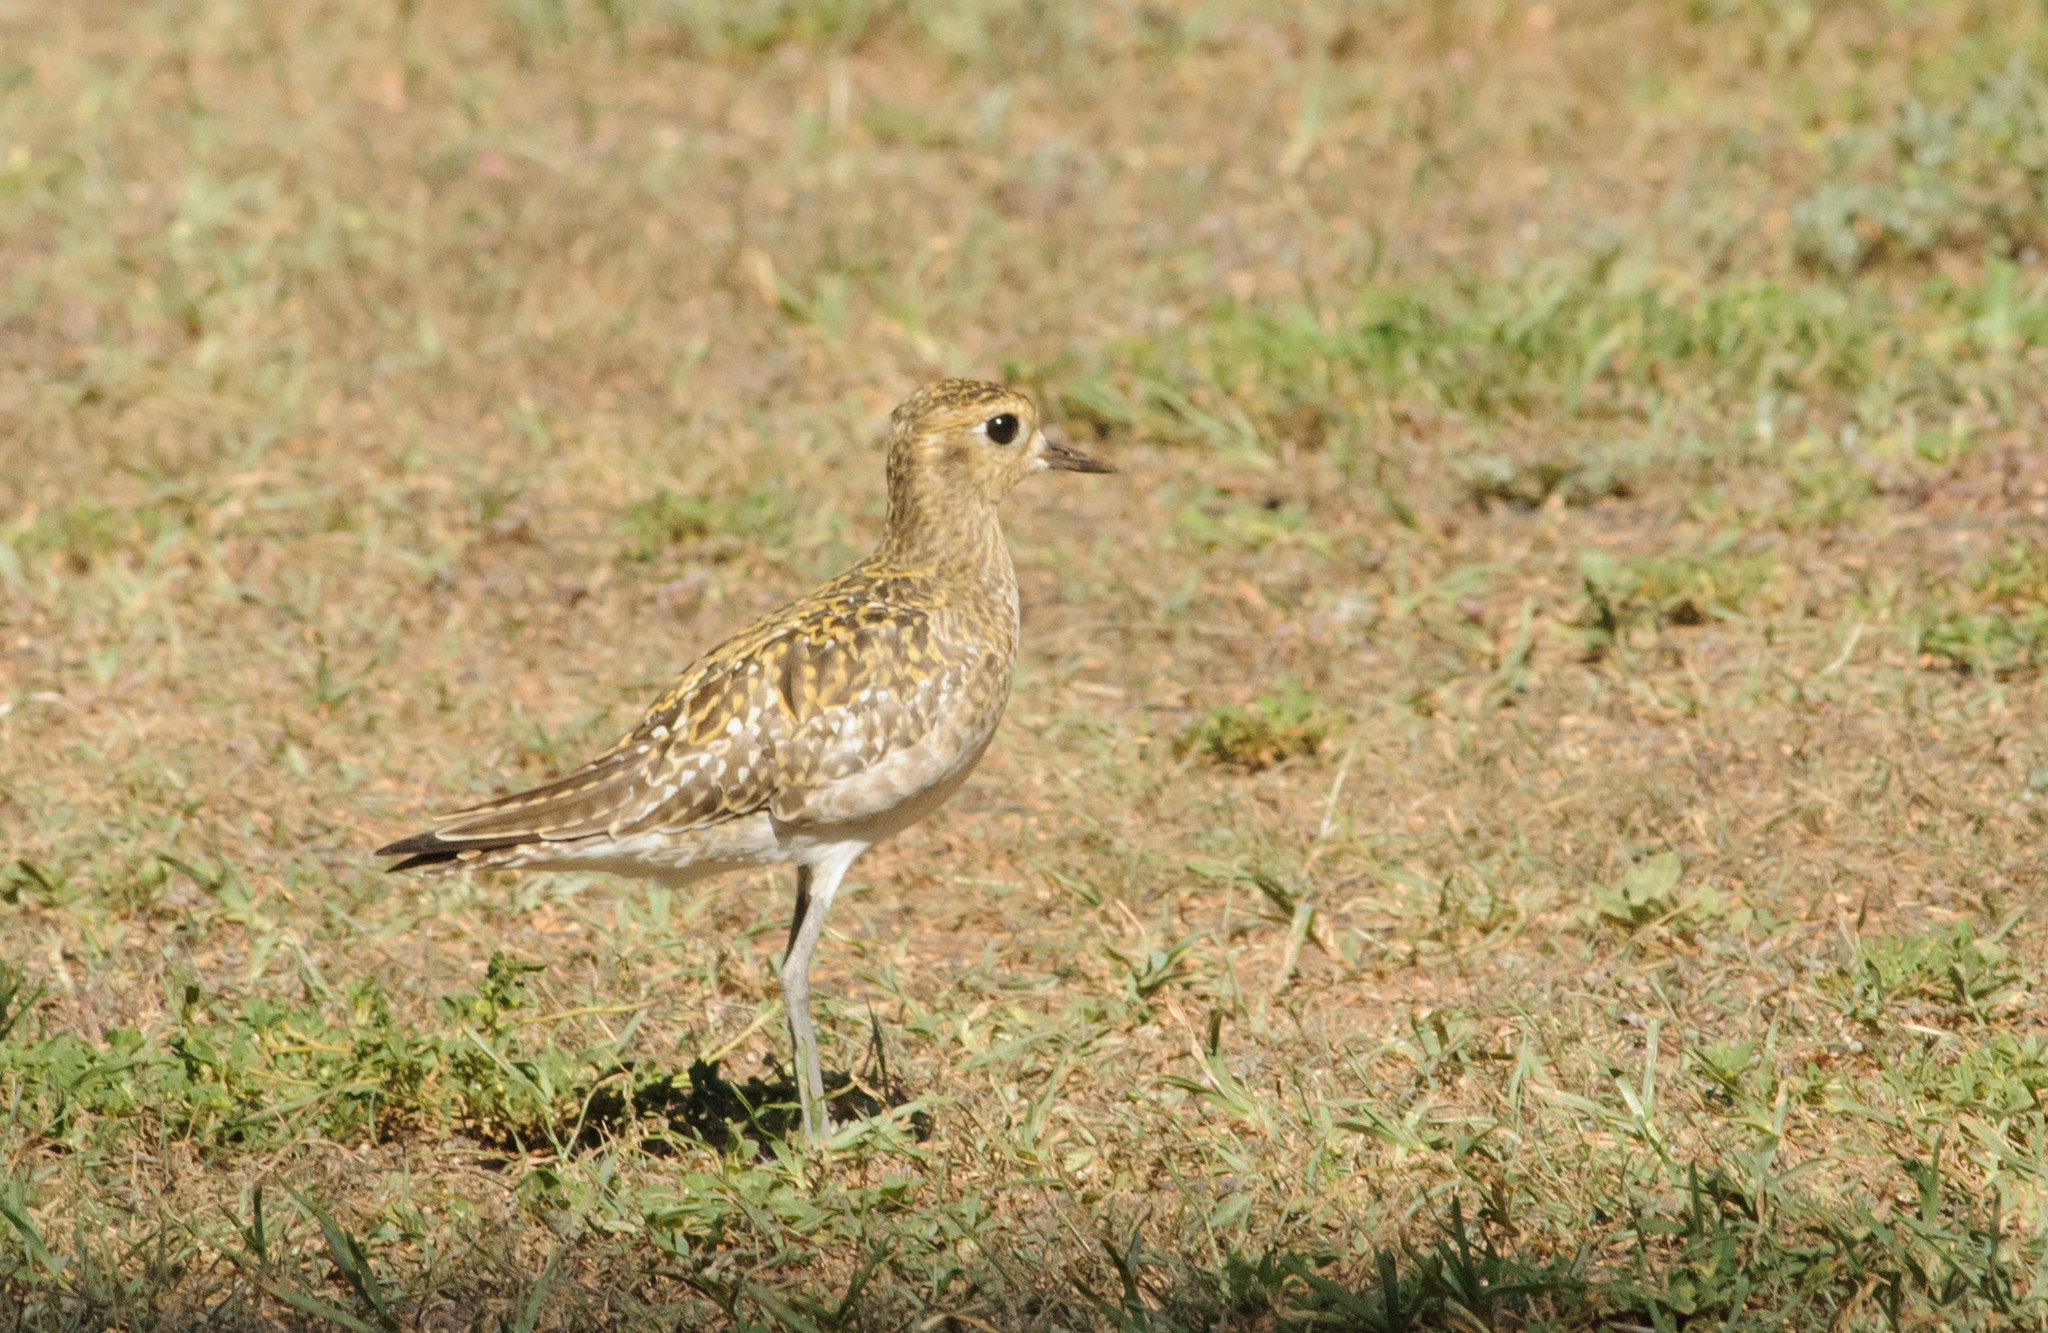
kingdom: Animalia
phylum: Chordata
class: Aves
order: Charadriiformes
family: Charadriidae
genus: Pluvialis
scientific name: Pluvialis fulva
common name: Pacific golden plover
